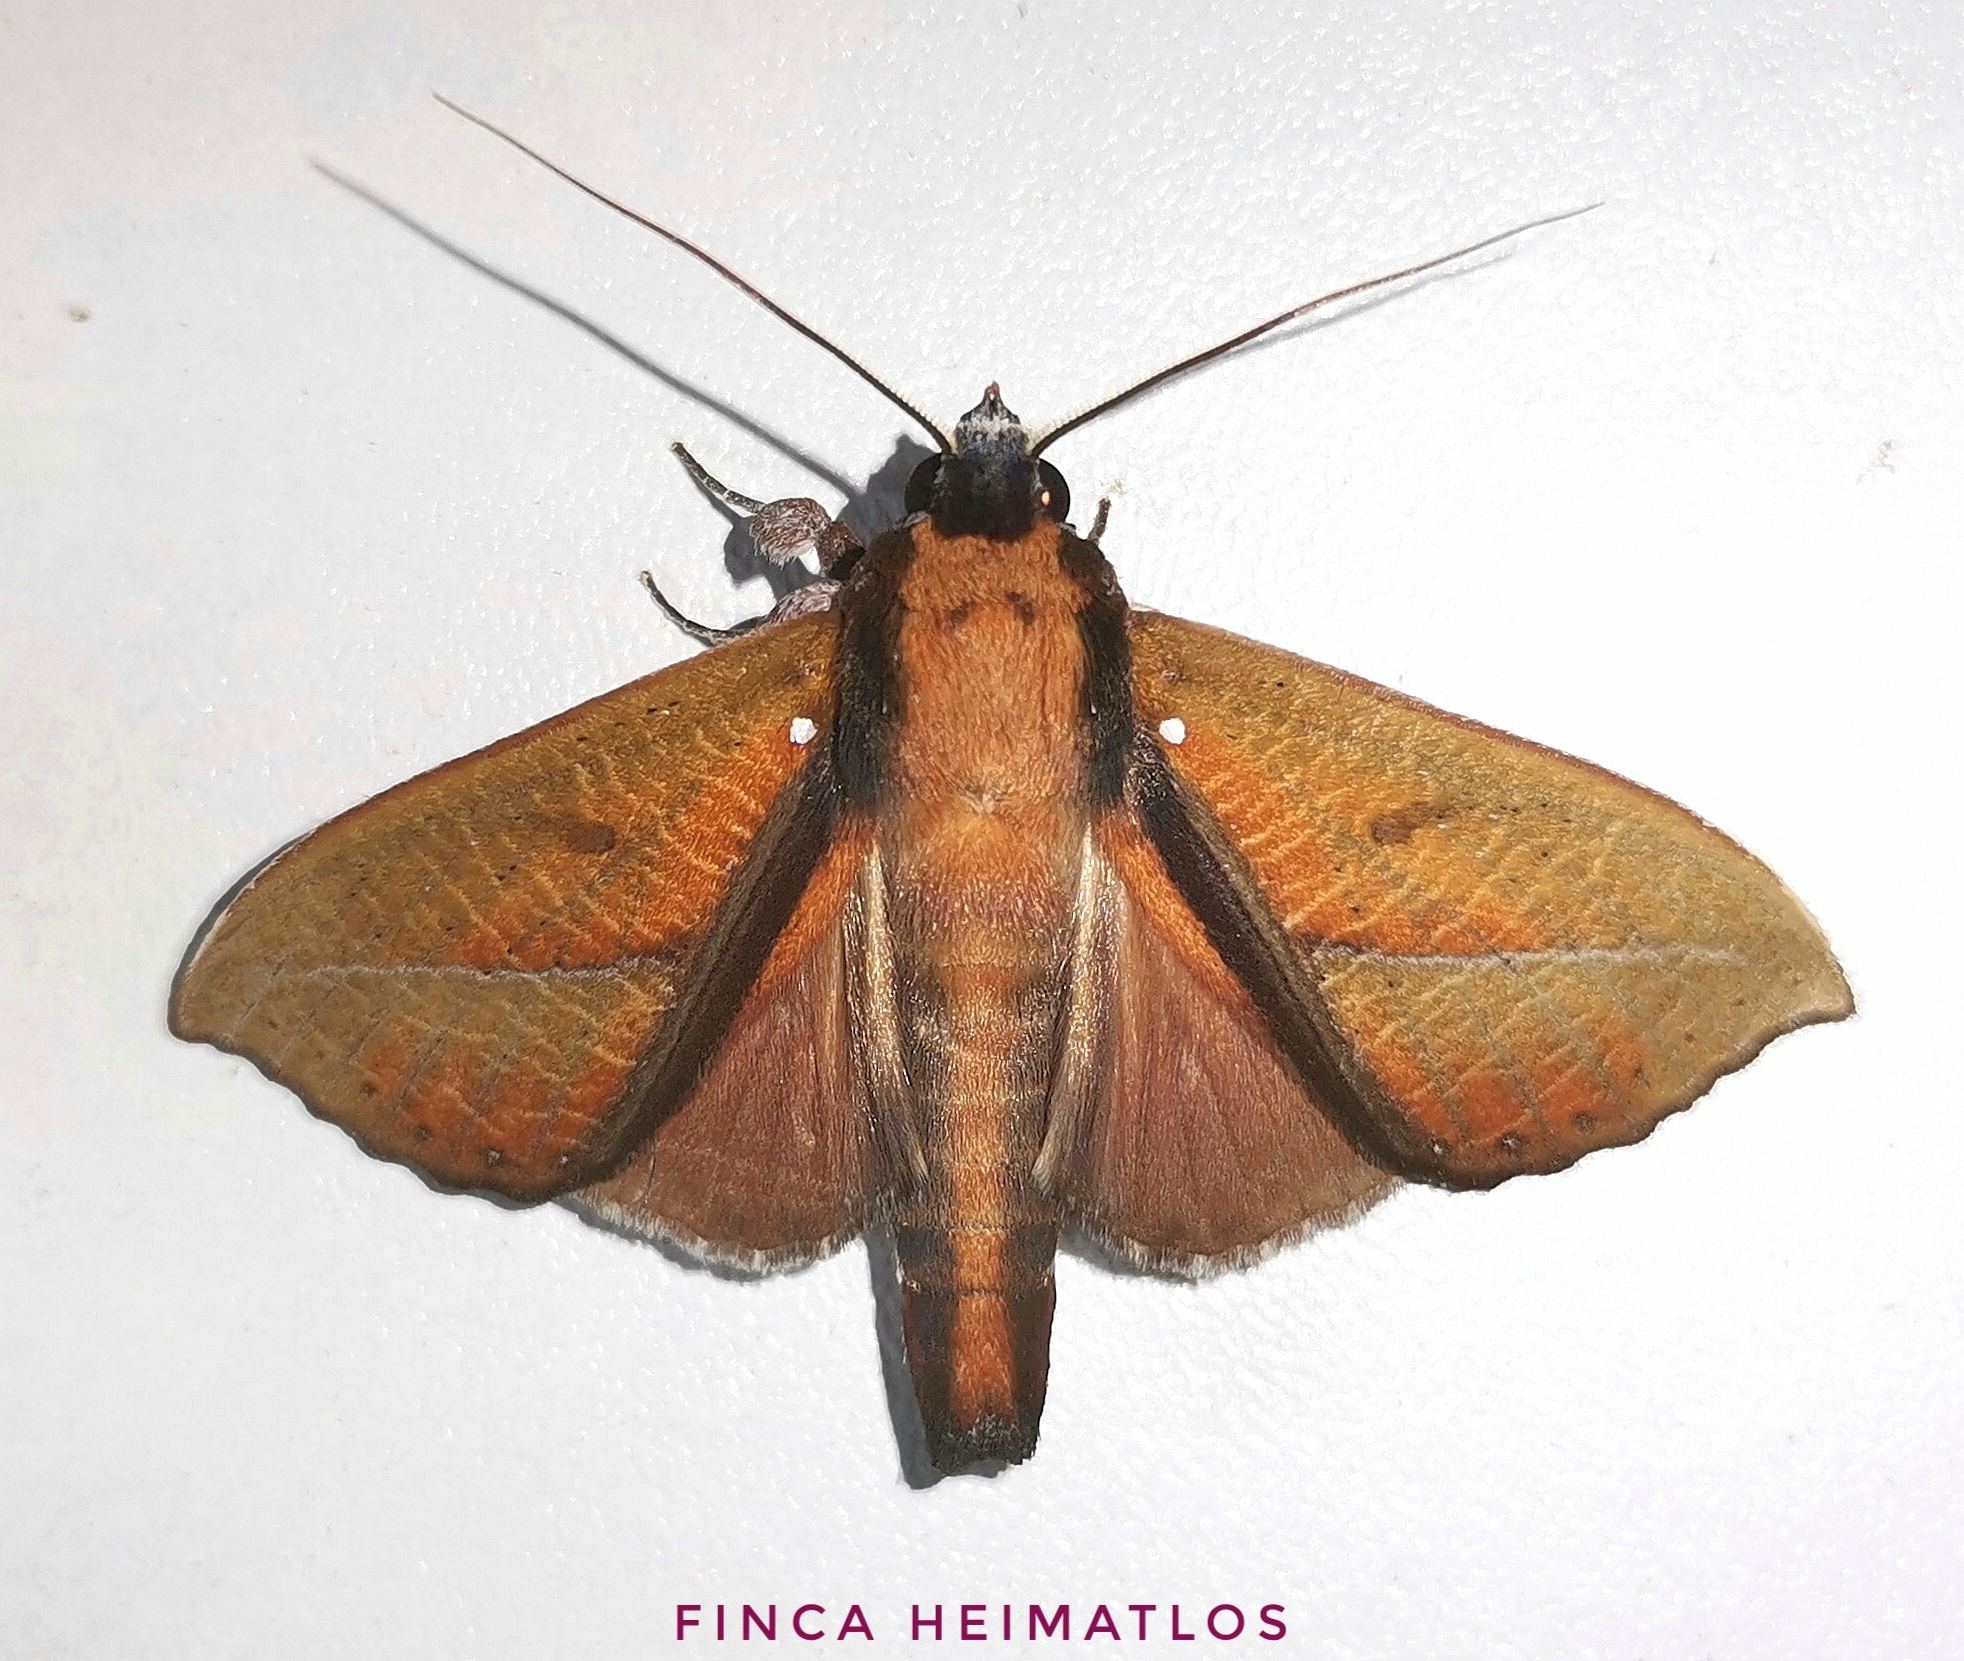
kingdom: Animalia
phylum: Arthropoda
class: Insecta
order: Lepidoptera
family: Notodontidae
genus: Strophocerus
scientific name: Strophocerus albonotata
